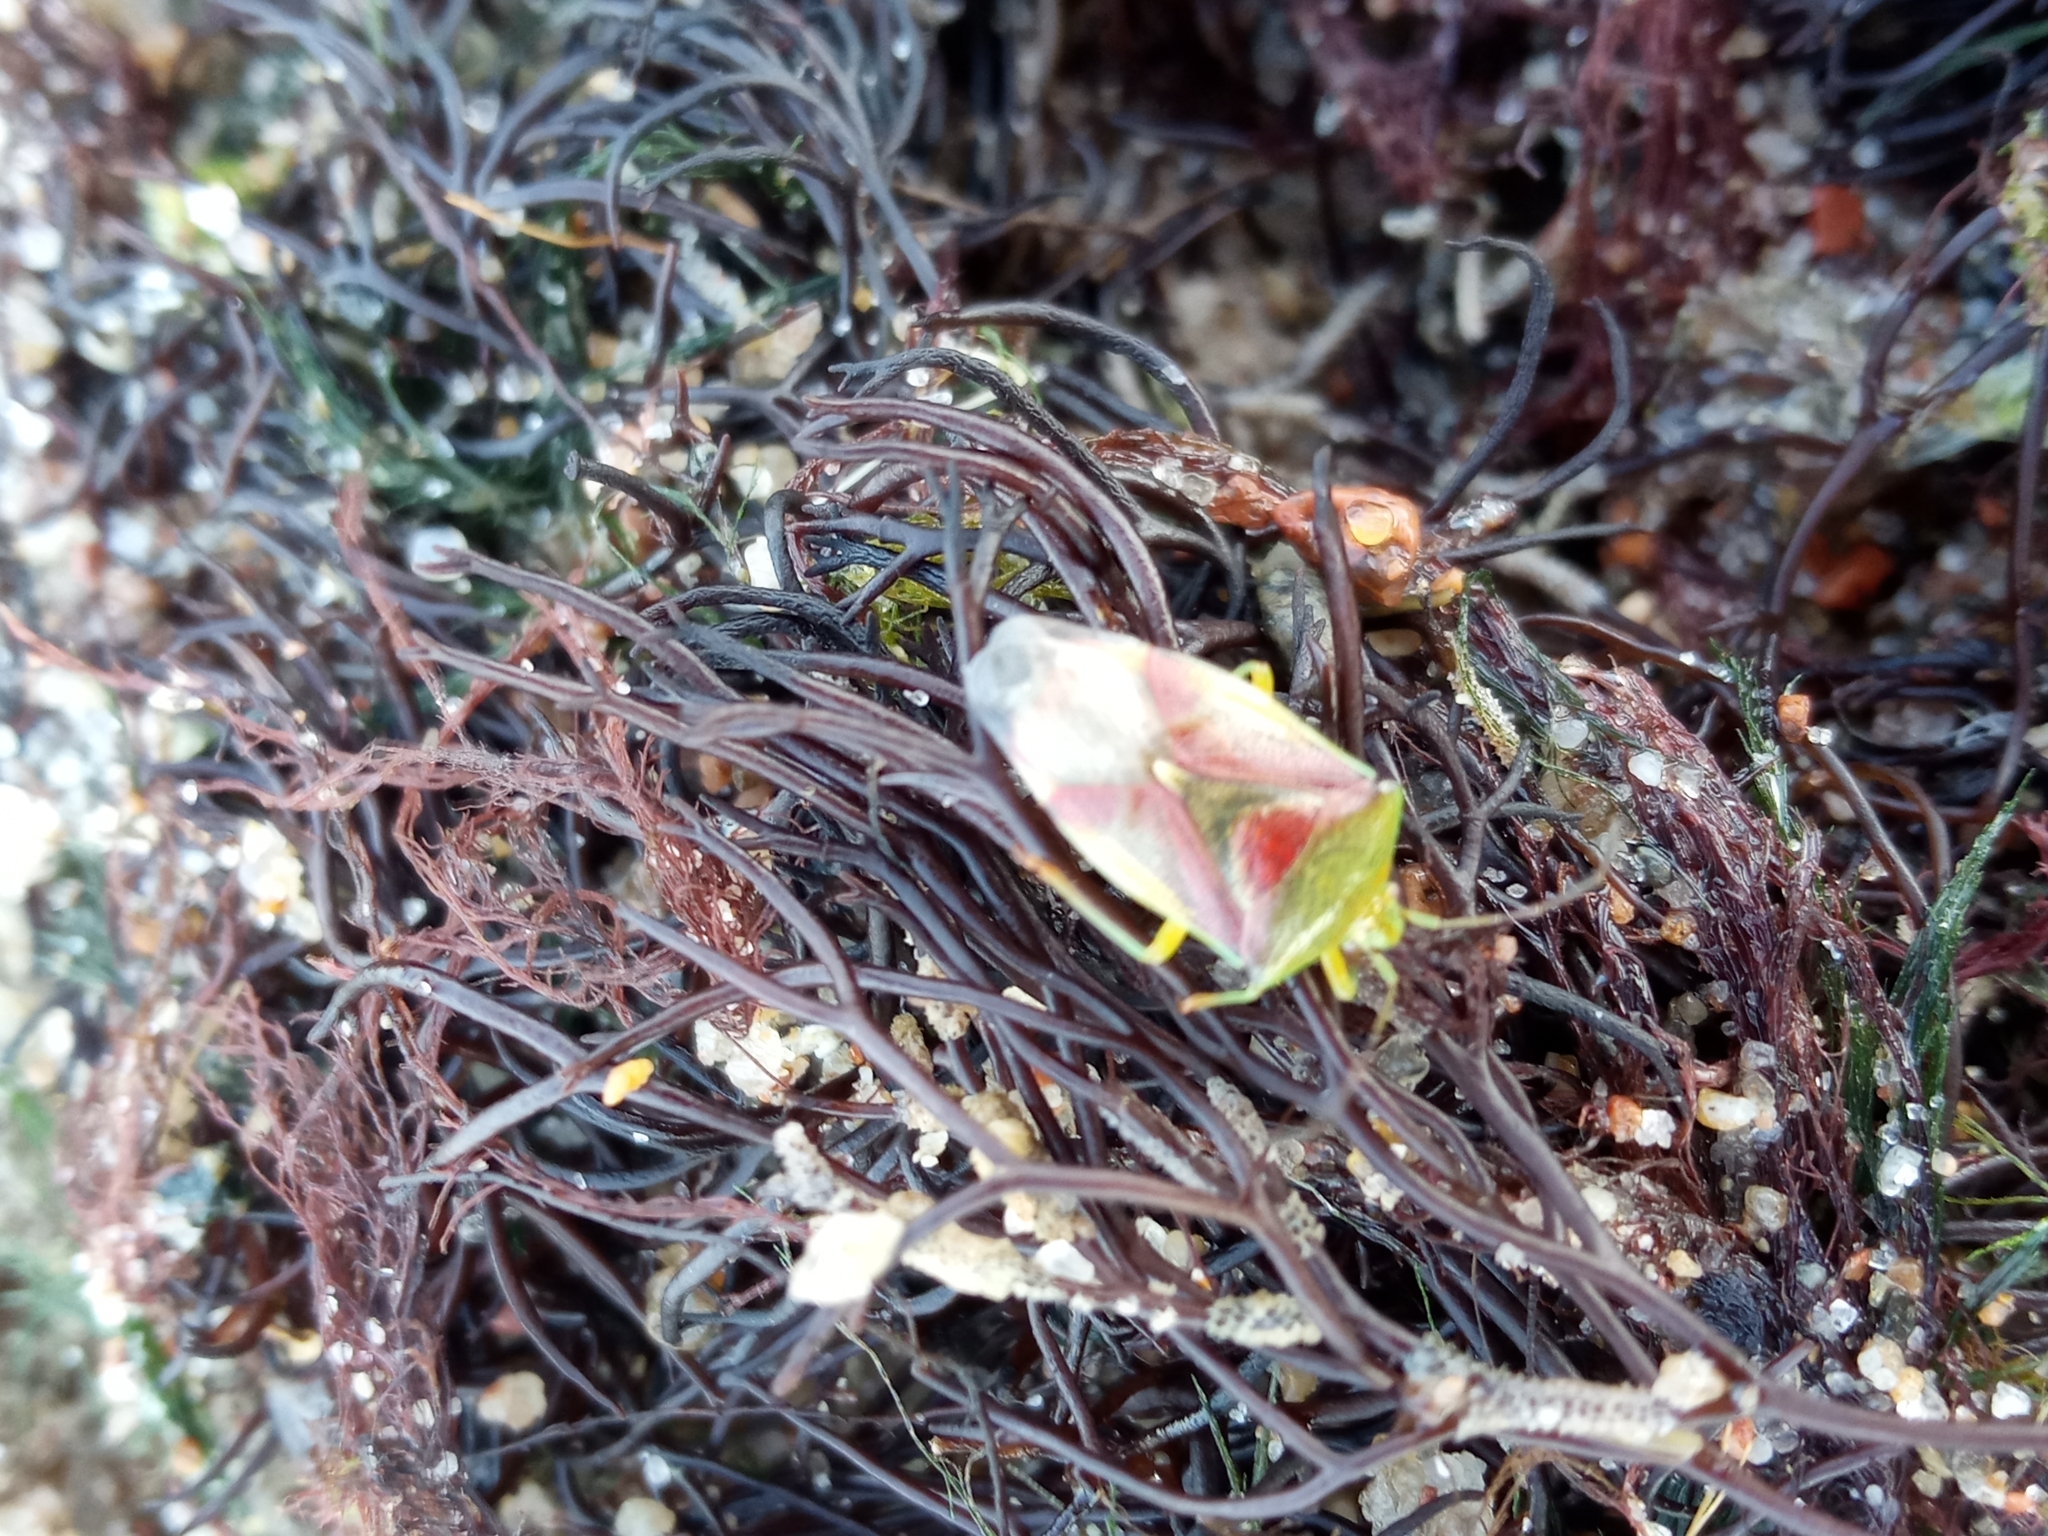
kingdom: Animalia
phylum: Arthropoda
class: Insecta
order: Hemiptera
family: Acanthosomatidae
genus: Elasmostethus
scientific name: Elasmostethus
